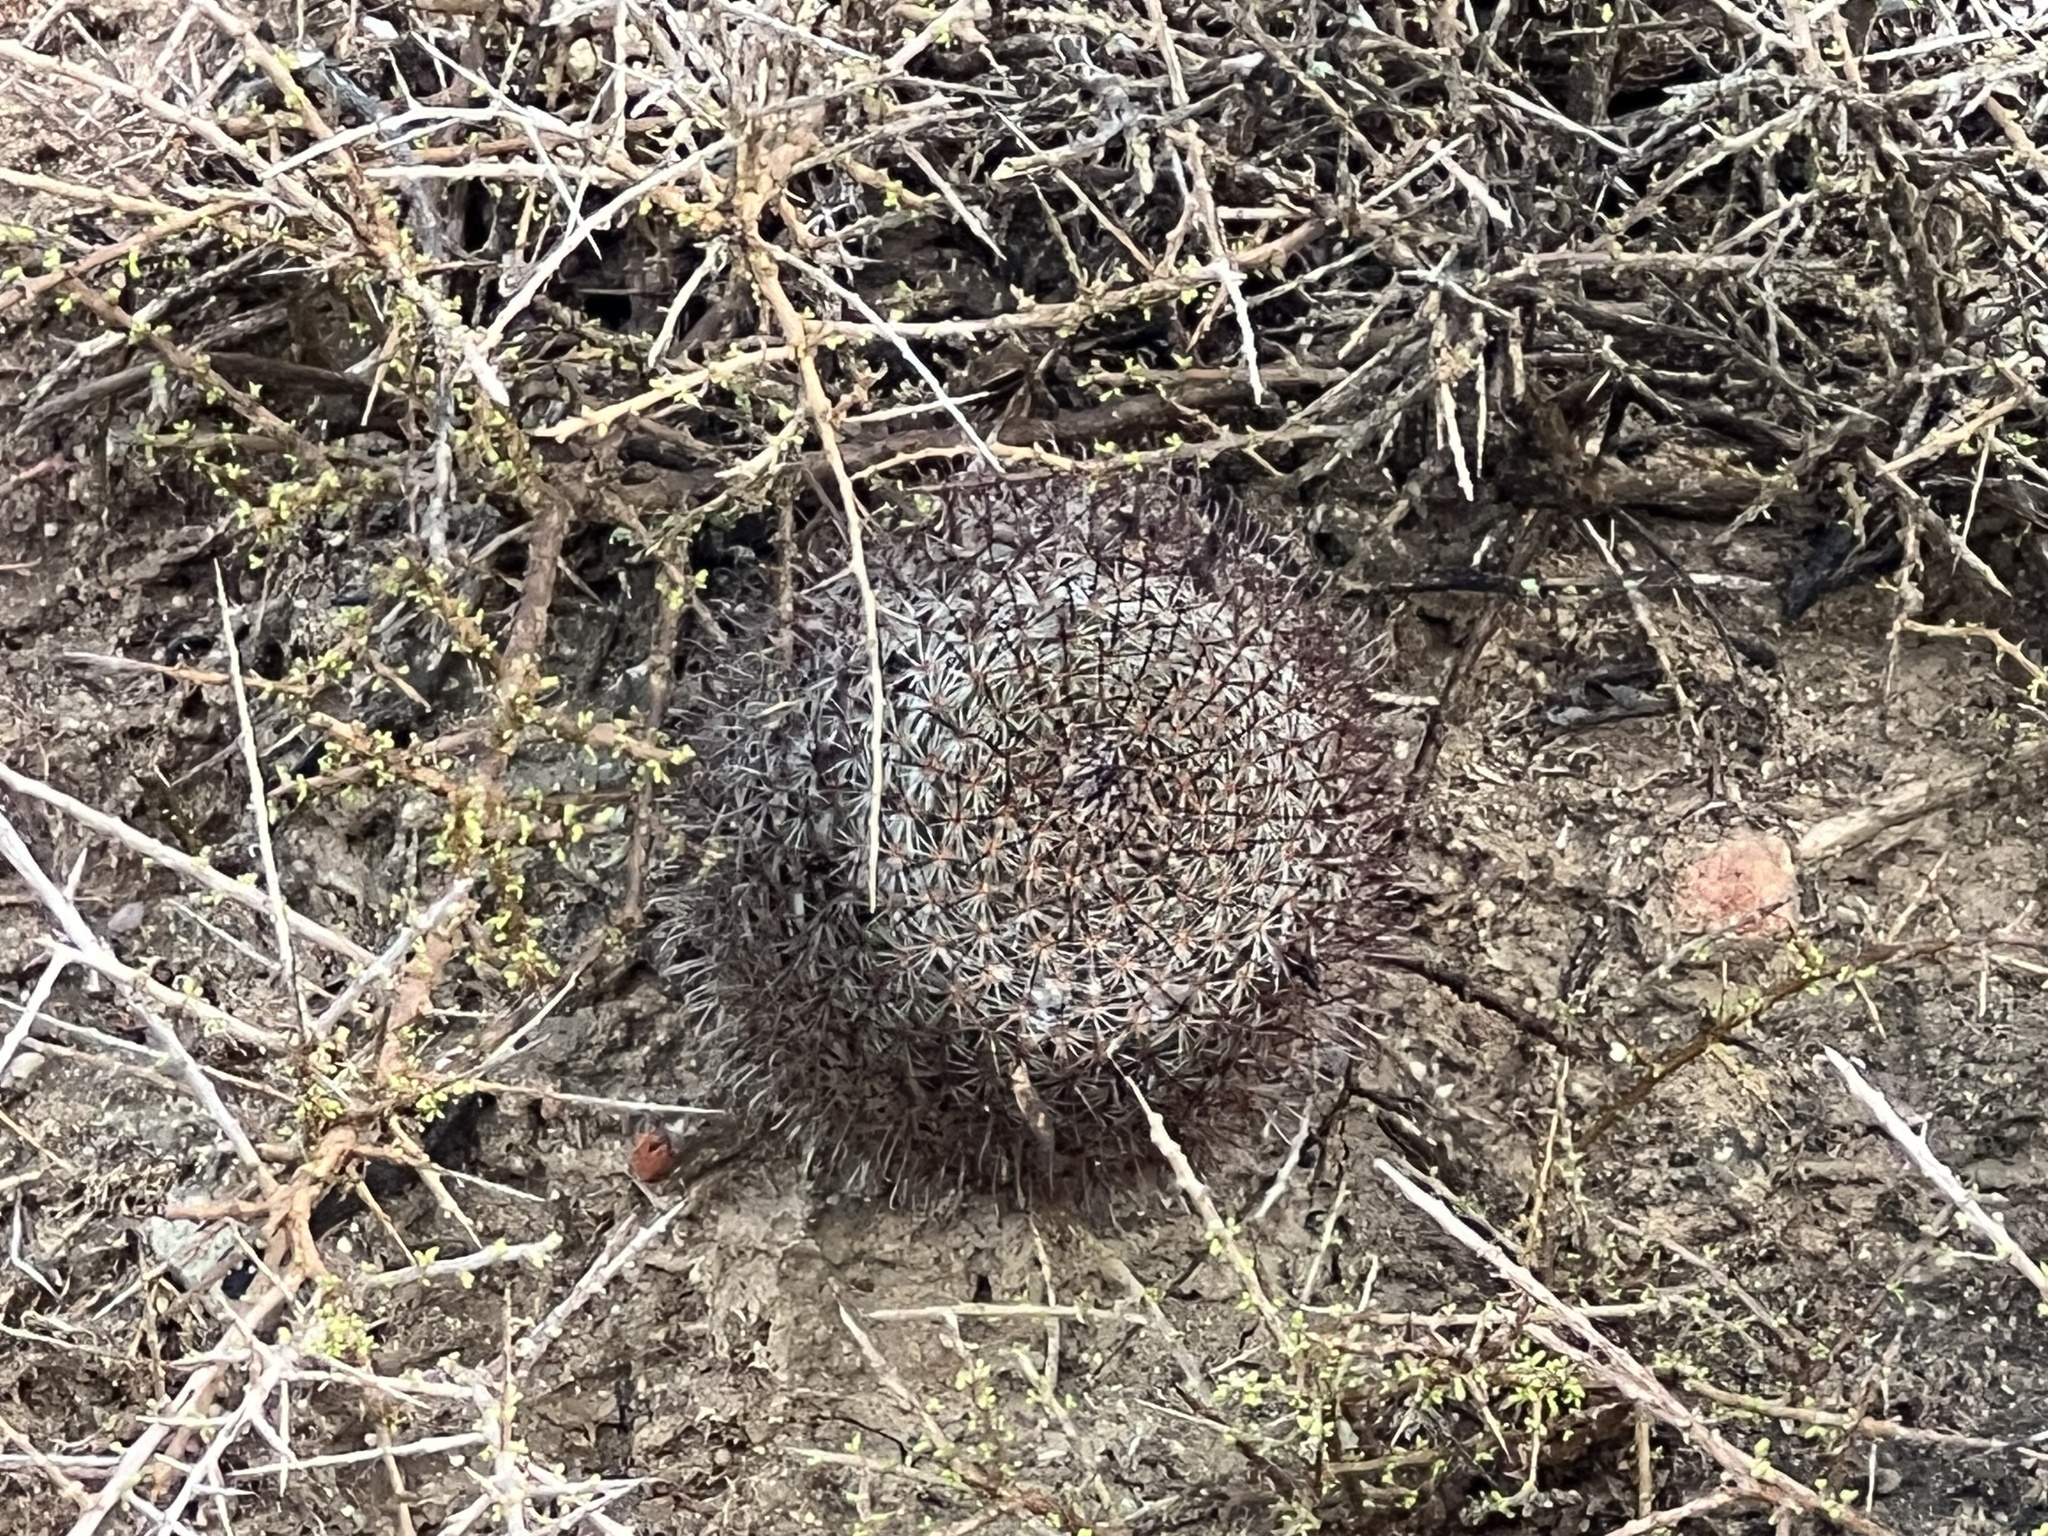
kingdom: Plantae
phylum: Tracheophyta
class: Magnoliopsida
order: Caryophyllales
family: Cactaceae
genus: Cochemiea
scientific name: Cochemiea dioica
